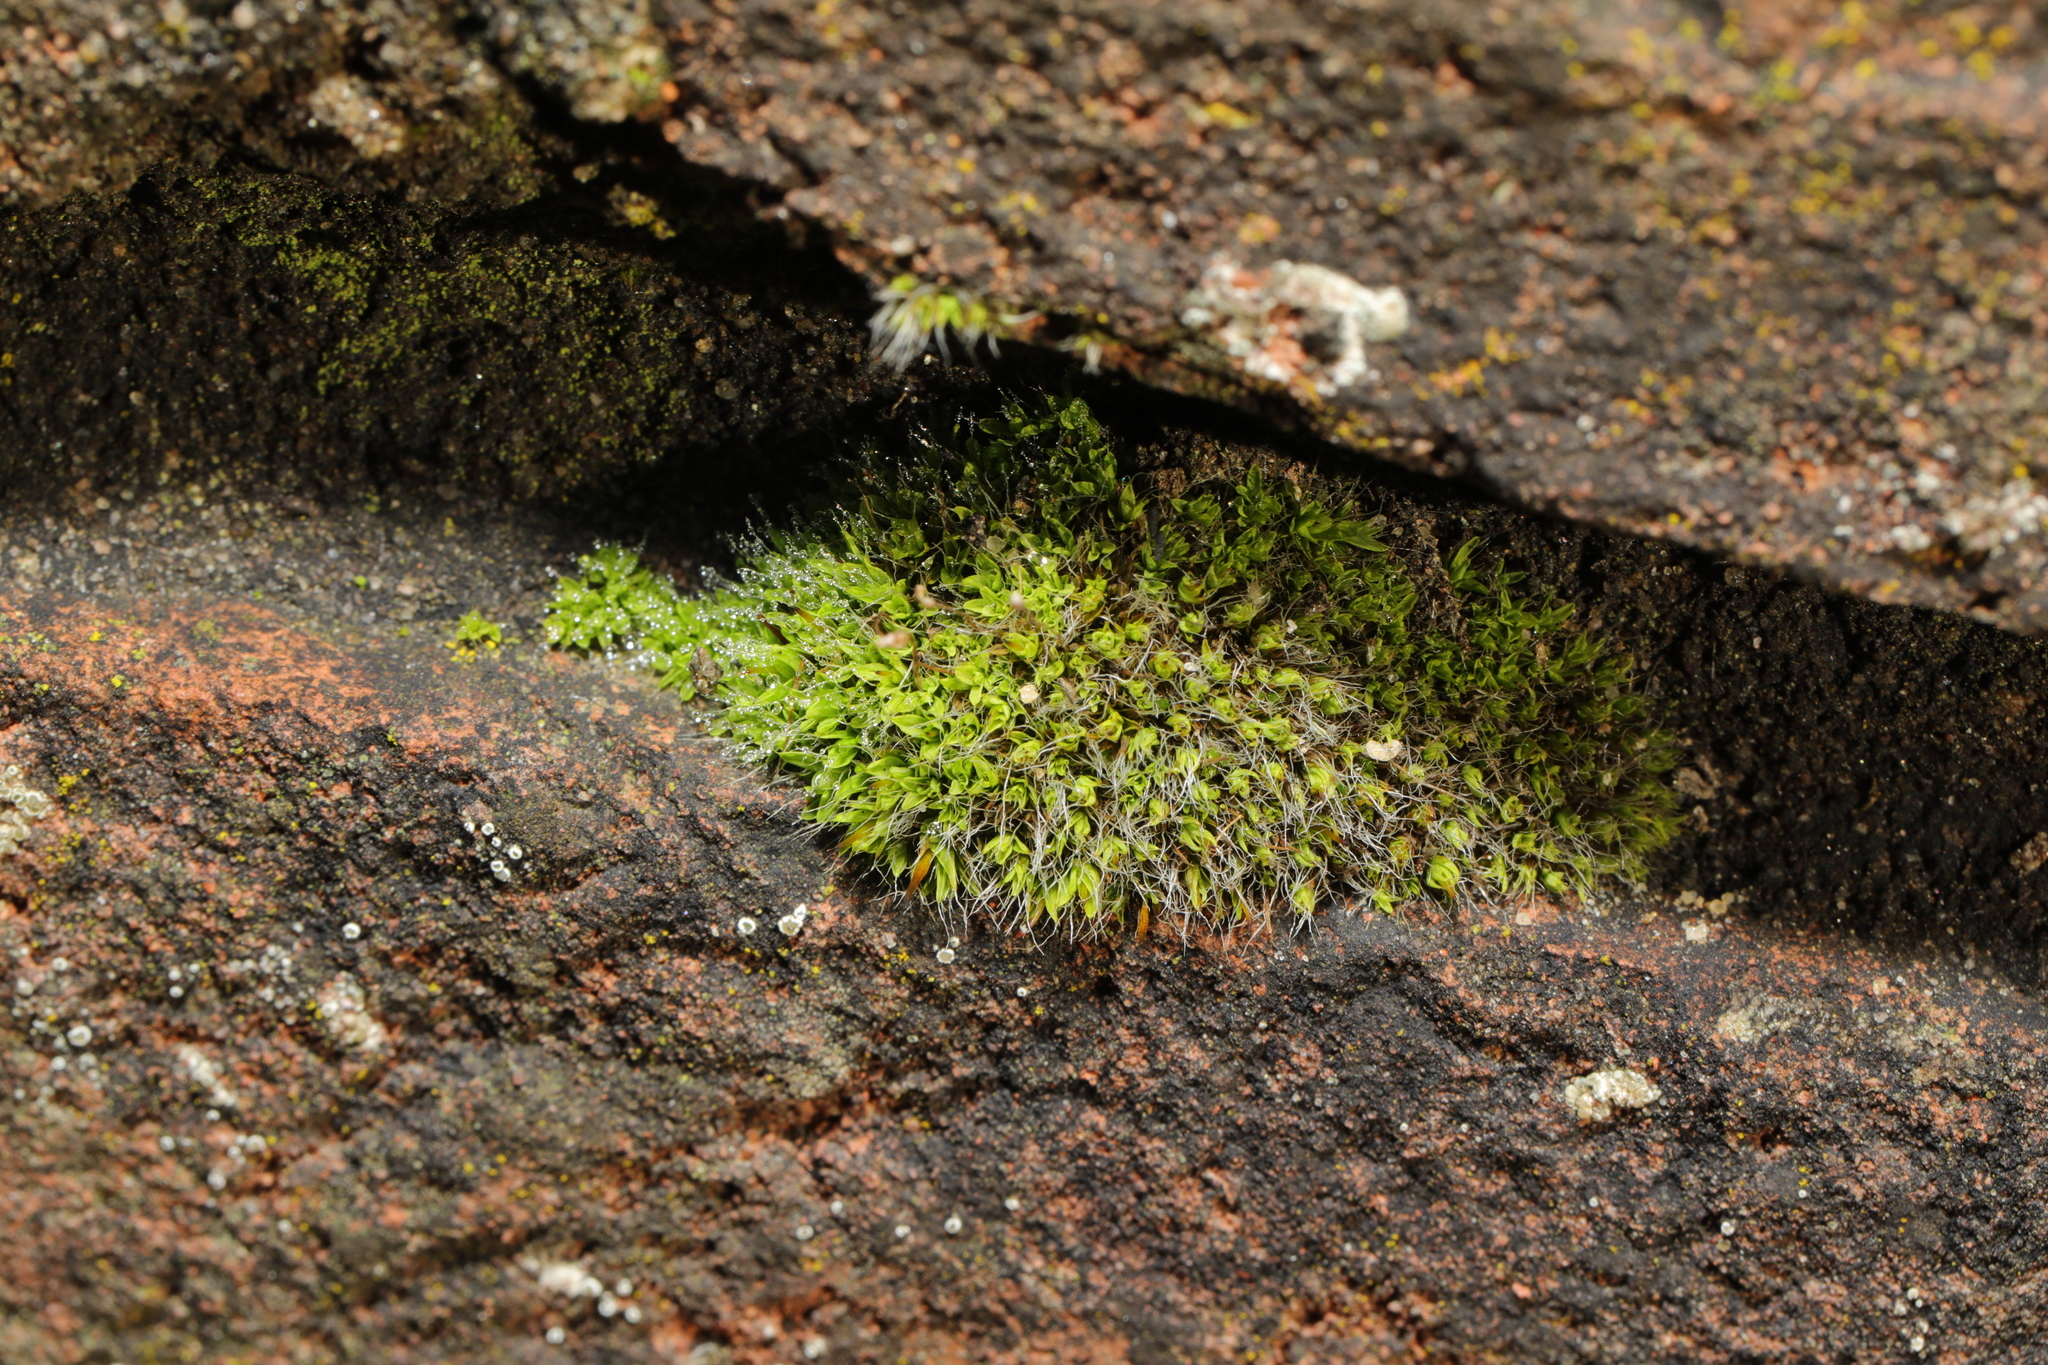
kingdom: Plantae
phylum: Bryophyta
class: Bryopsida
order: Pottiales
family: Pottiaceae
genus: Tortula
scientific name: Tortula muralis
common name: Wall screw-moss
